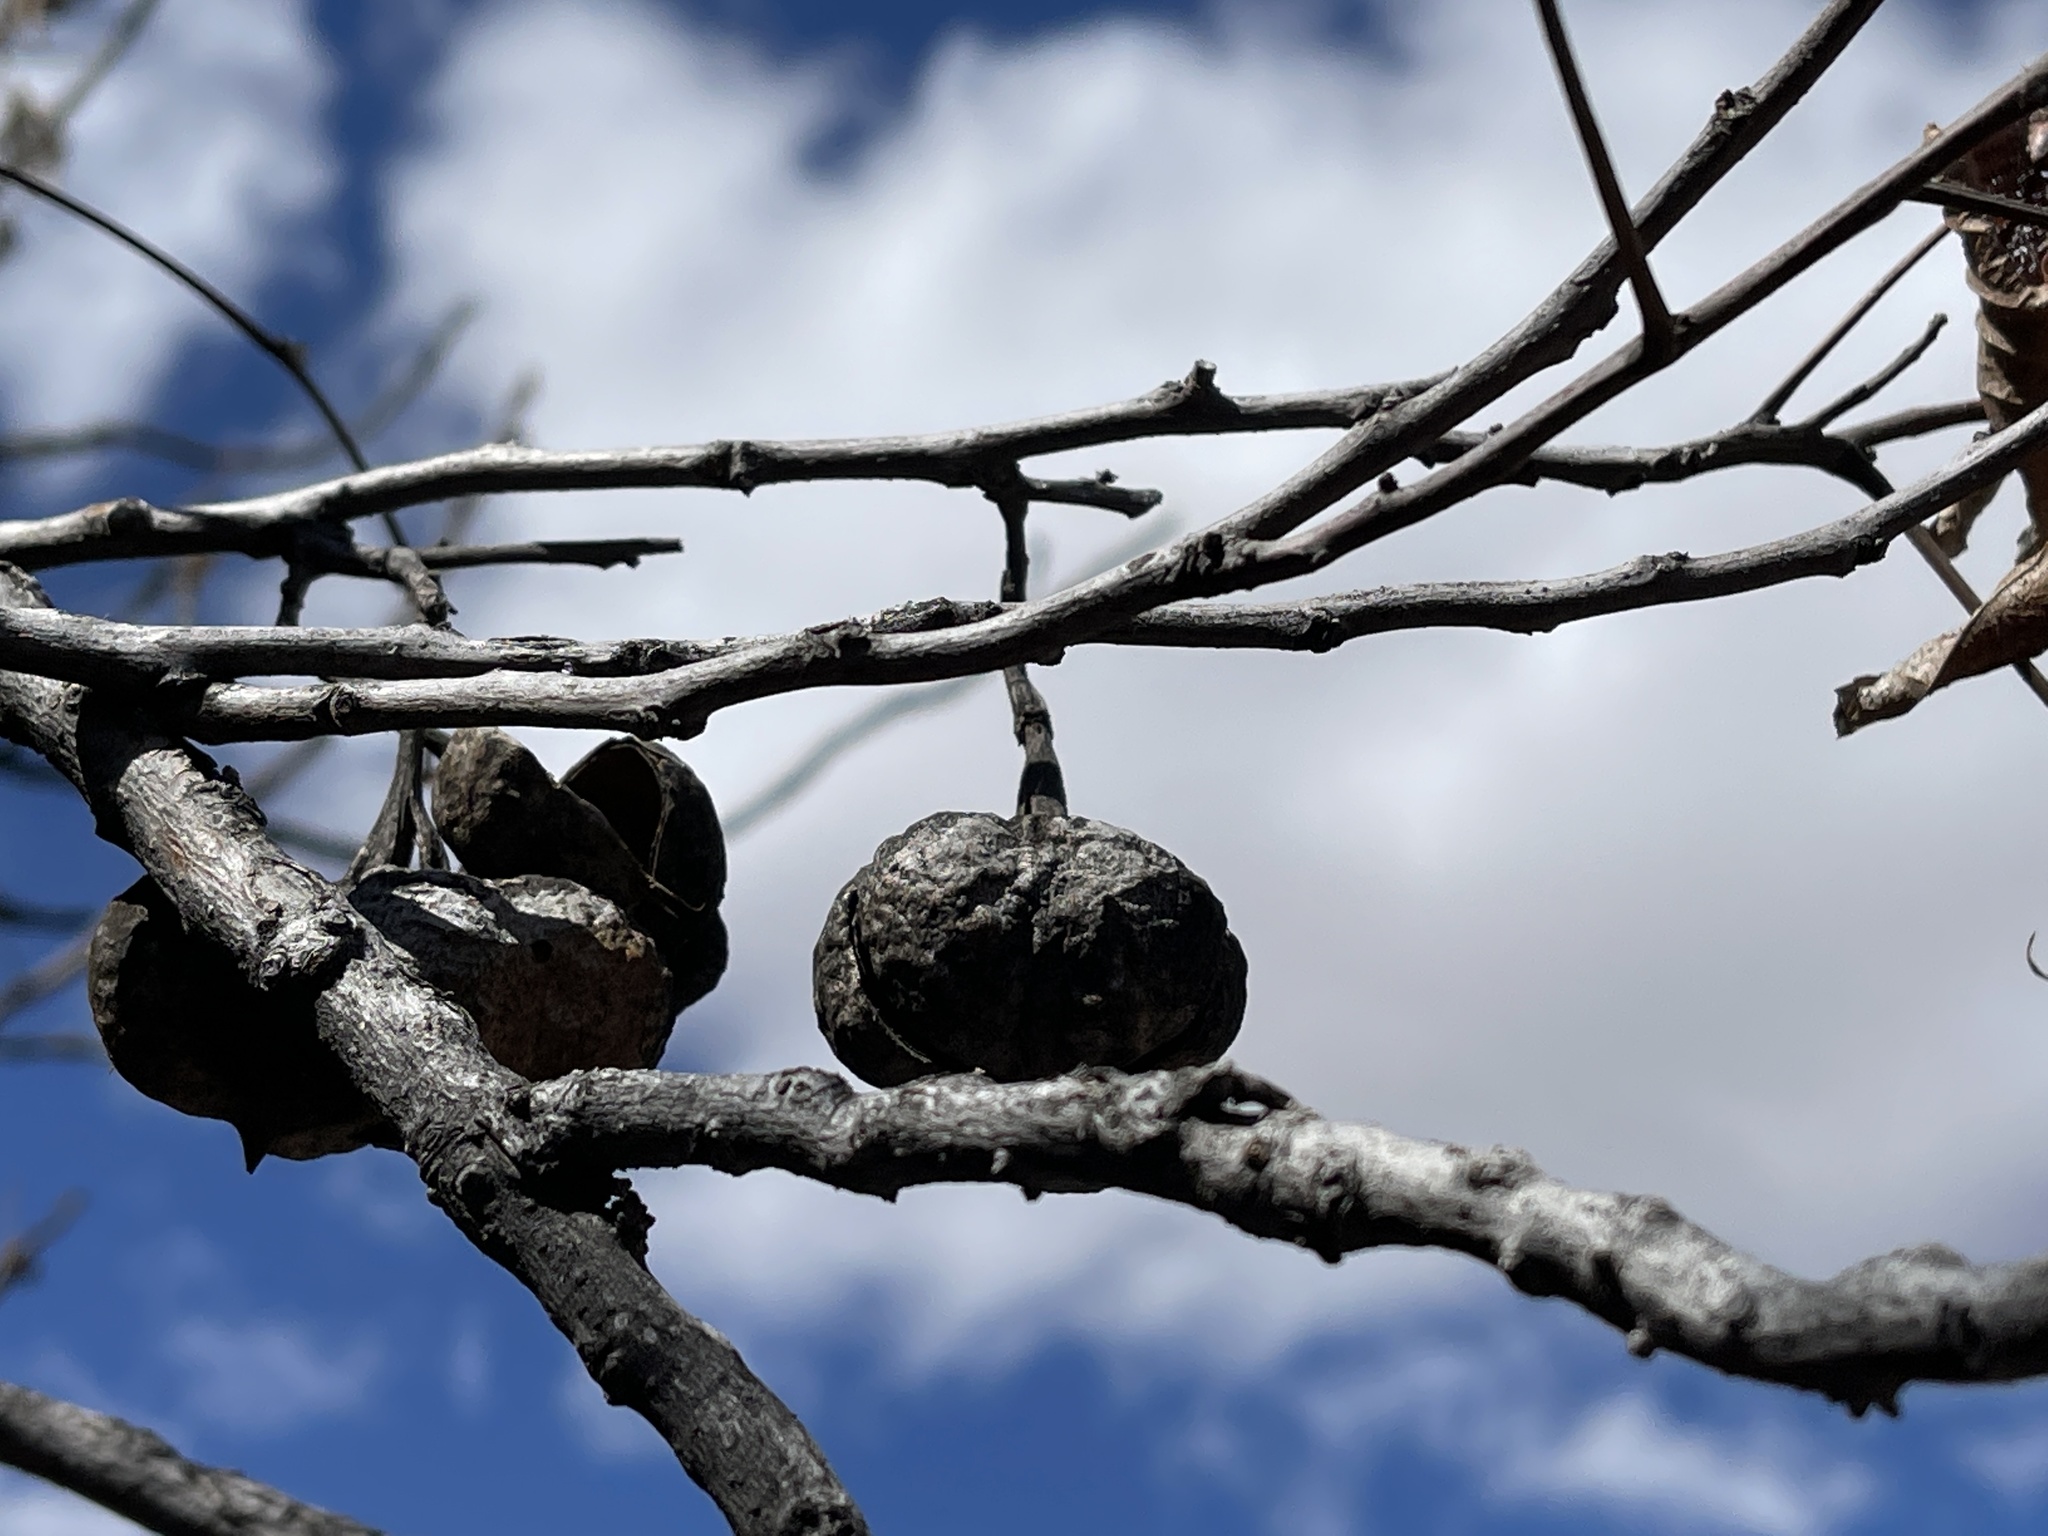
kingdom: Plantae
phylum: Tracheophyta
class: Magnoliopsida
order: Sapindales
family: Sapindaceae
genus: Ungnadia
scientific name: Ungnadia speciosa
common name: Texas-buckeye
